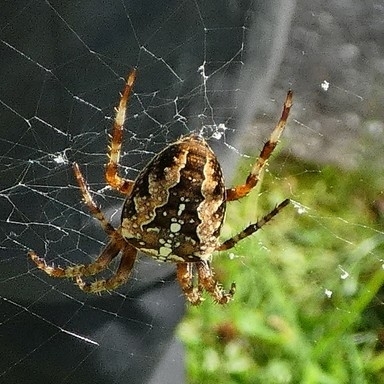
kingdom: Animalia
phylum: Arthropoda
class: Arachnida
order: Araneae
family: Araneidae
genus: Araneus
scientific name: Araneus diadematus
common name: Cross orbweaver
